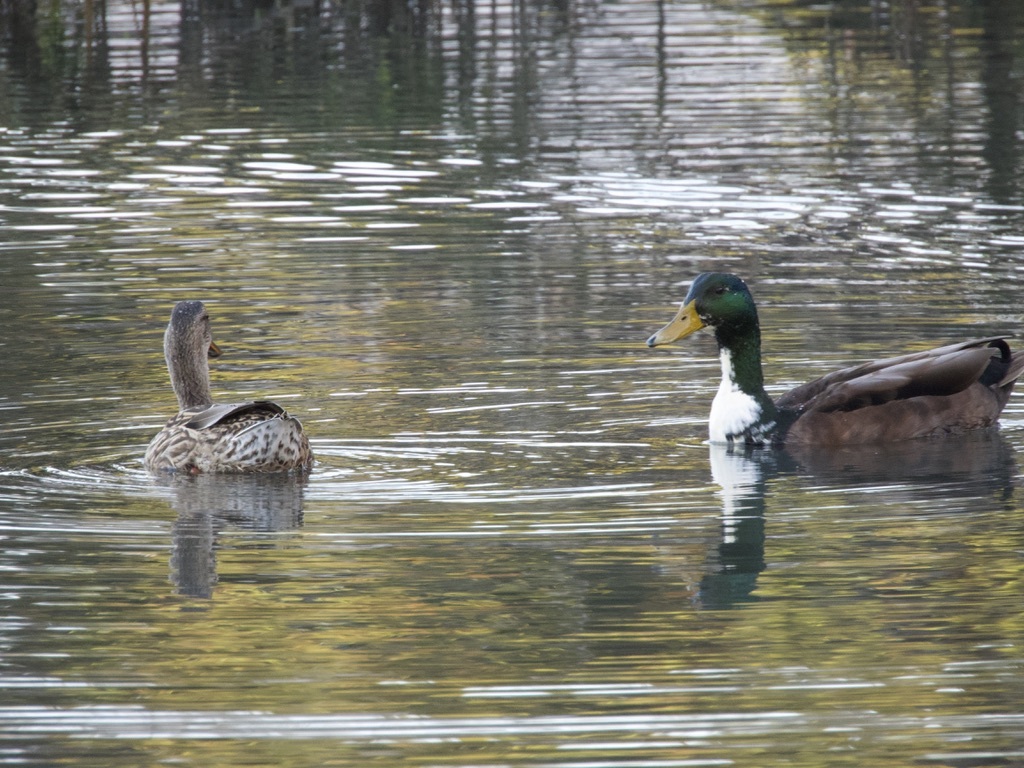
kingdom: Animalia
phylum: Chordata
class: Aves
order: Anseriformes
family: Anatidae
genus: Anas
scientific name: Anas platyrhynchos
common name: Mallard
